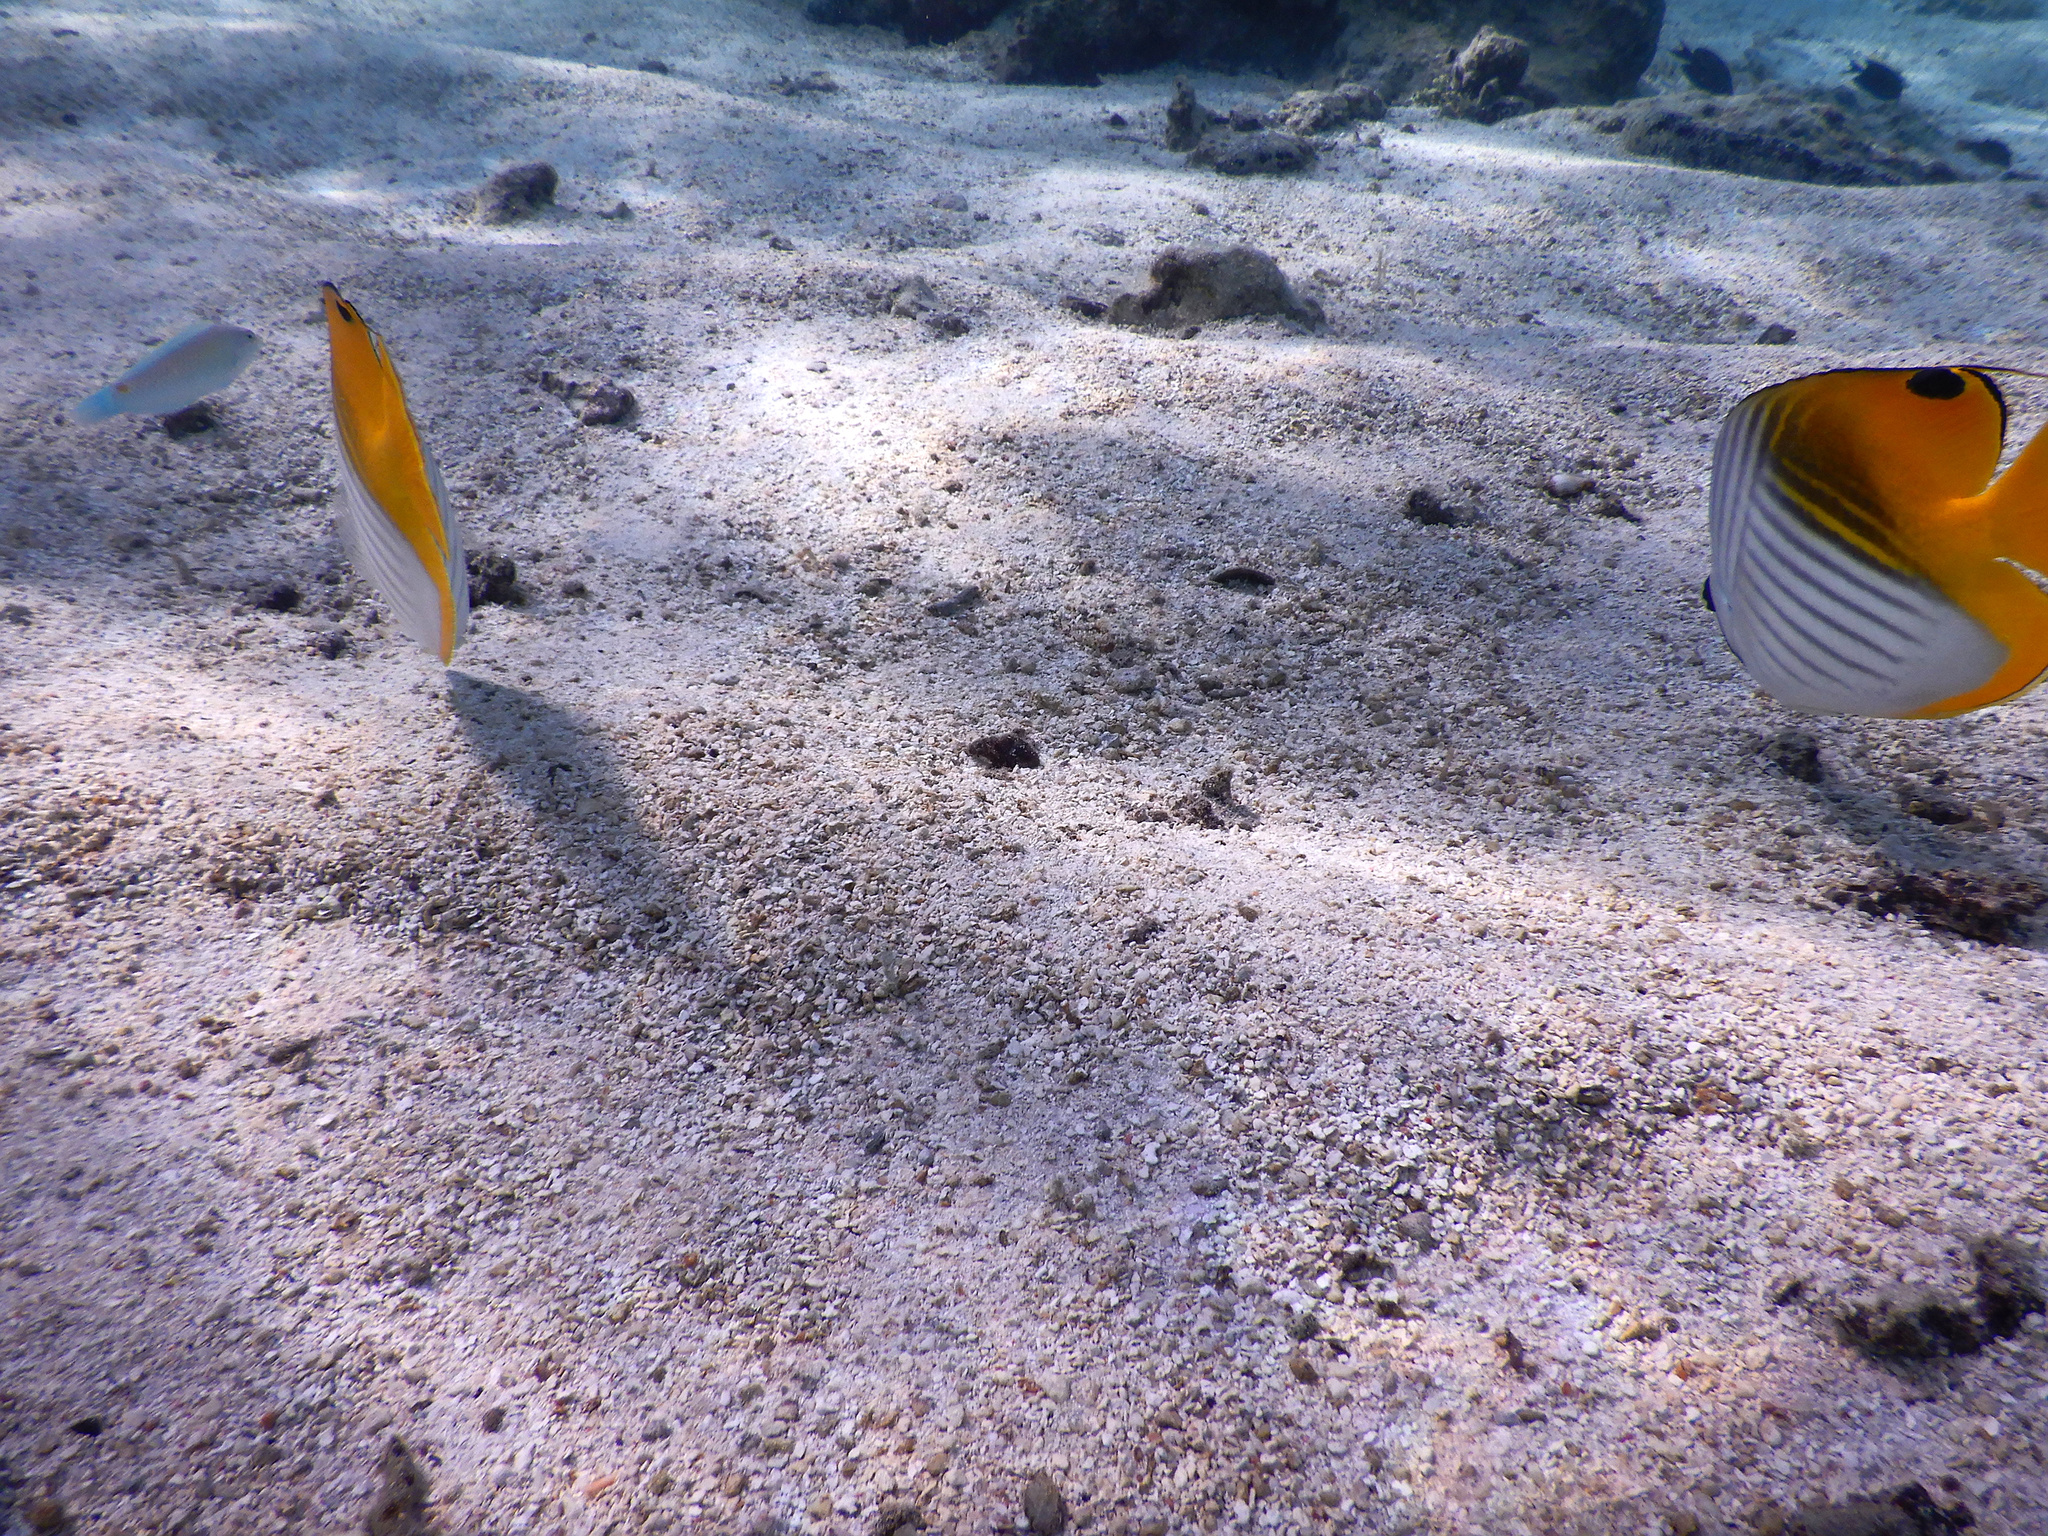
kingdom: Animalia
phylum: Chordata
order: Perciformes
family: Chaetodontidae
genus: Chaetodon
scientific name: Chaetodon auriga
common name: Threadfin butterflyfish
